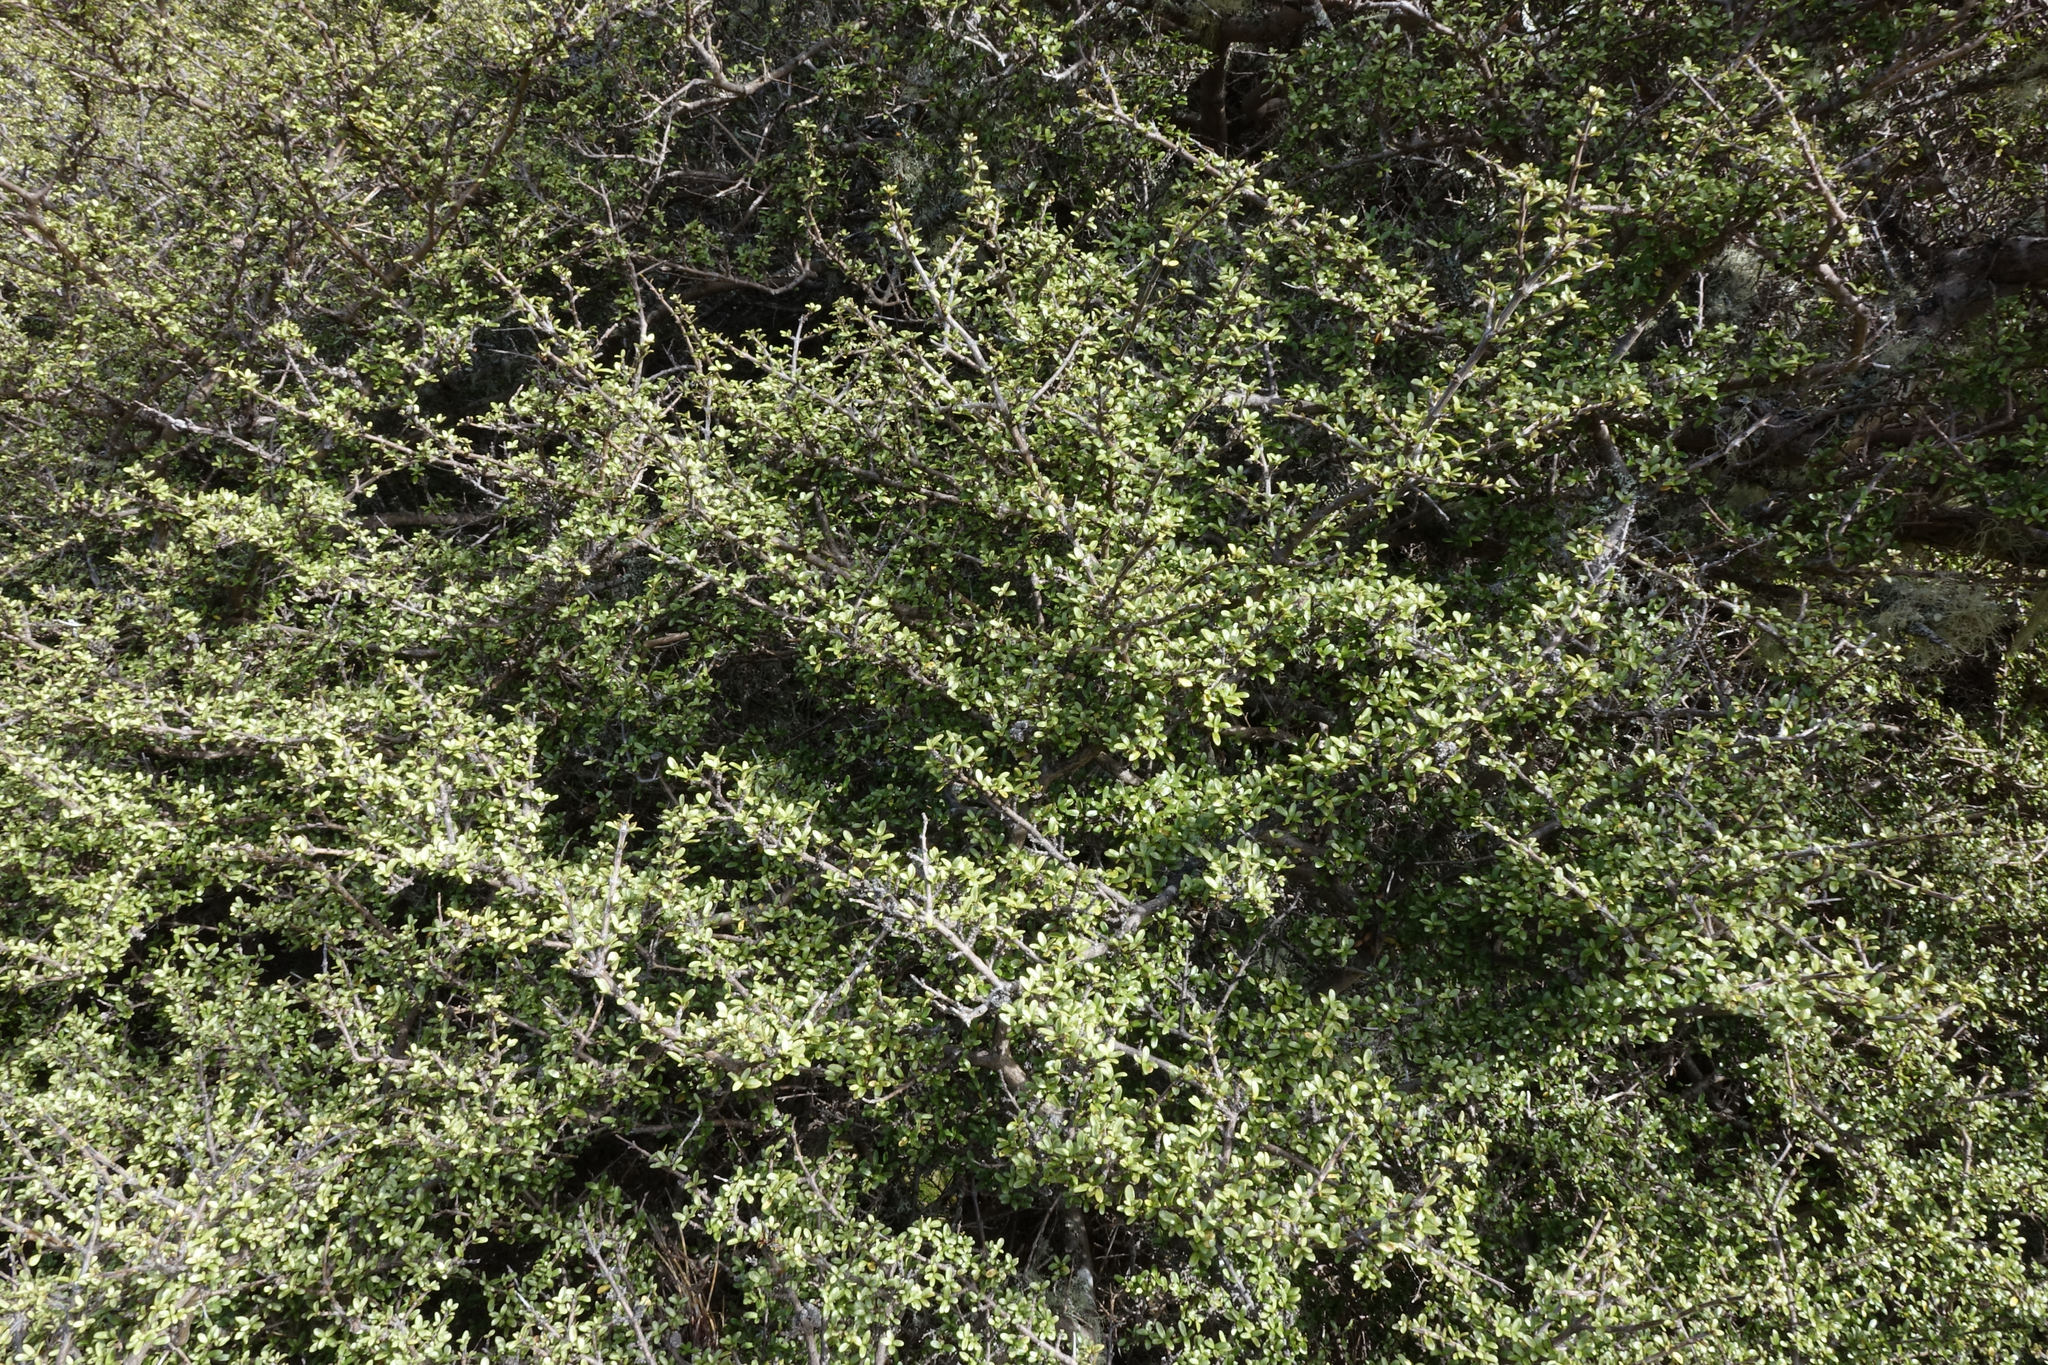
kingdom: Plantae
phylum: Tracheophyta
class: Magnoliopsida
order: Gentianales
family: Rubiaceae
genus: Coprosma
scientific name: Coprosma dumosa
